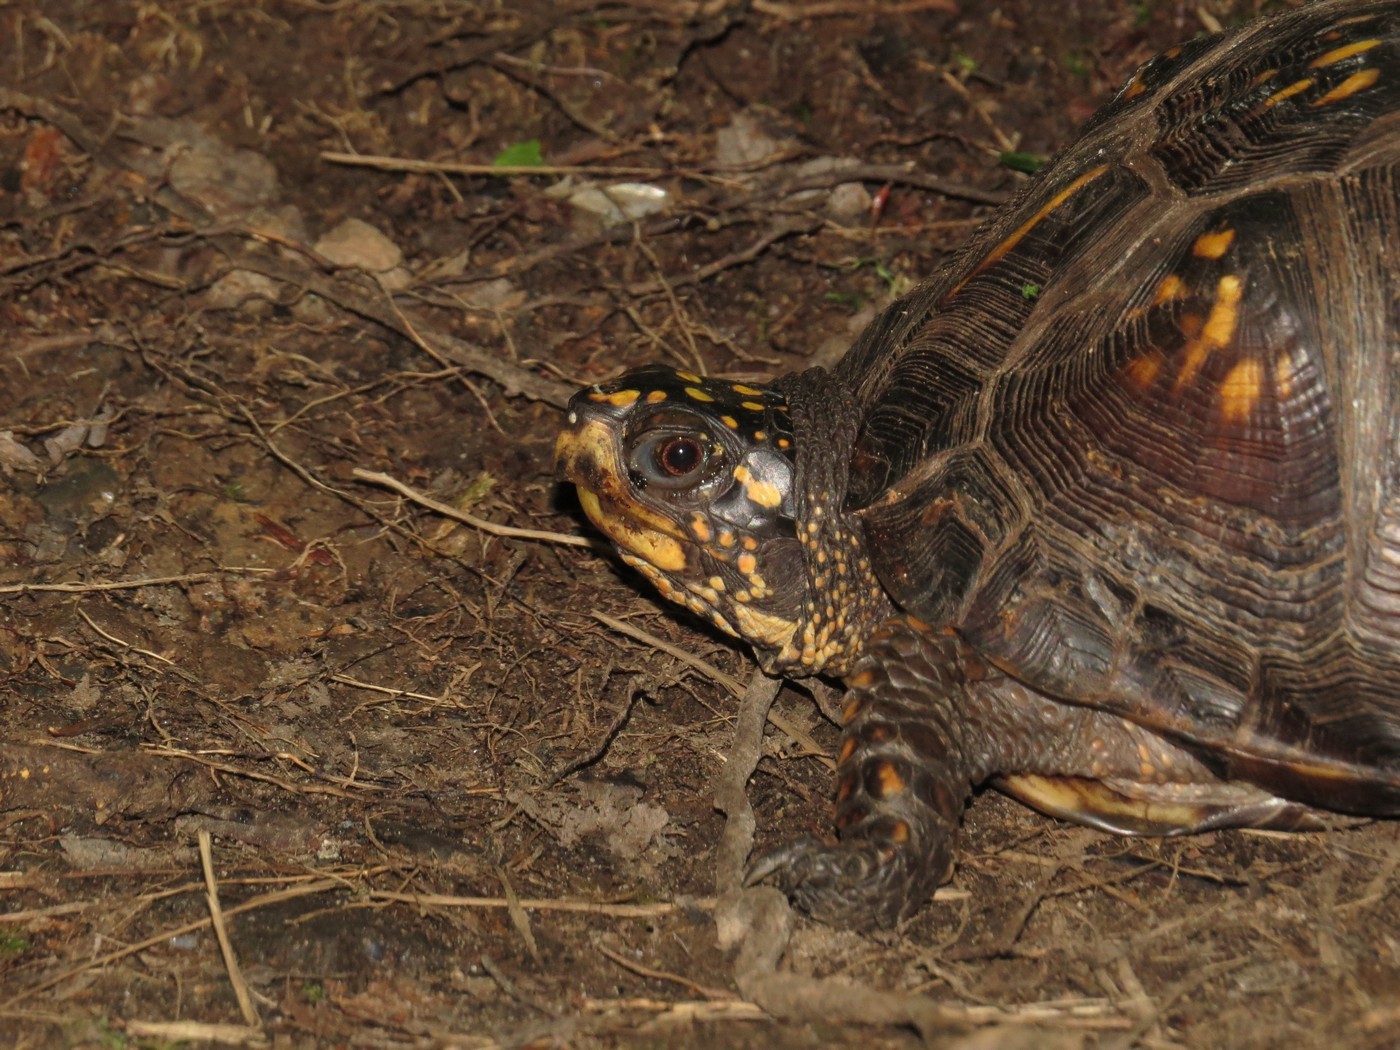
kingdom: Animalia
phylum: Chordata
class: Testudines
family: Emydidae
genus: Terrapene
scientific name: Terrapene carolina
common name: Common box turtle
